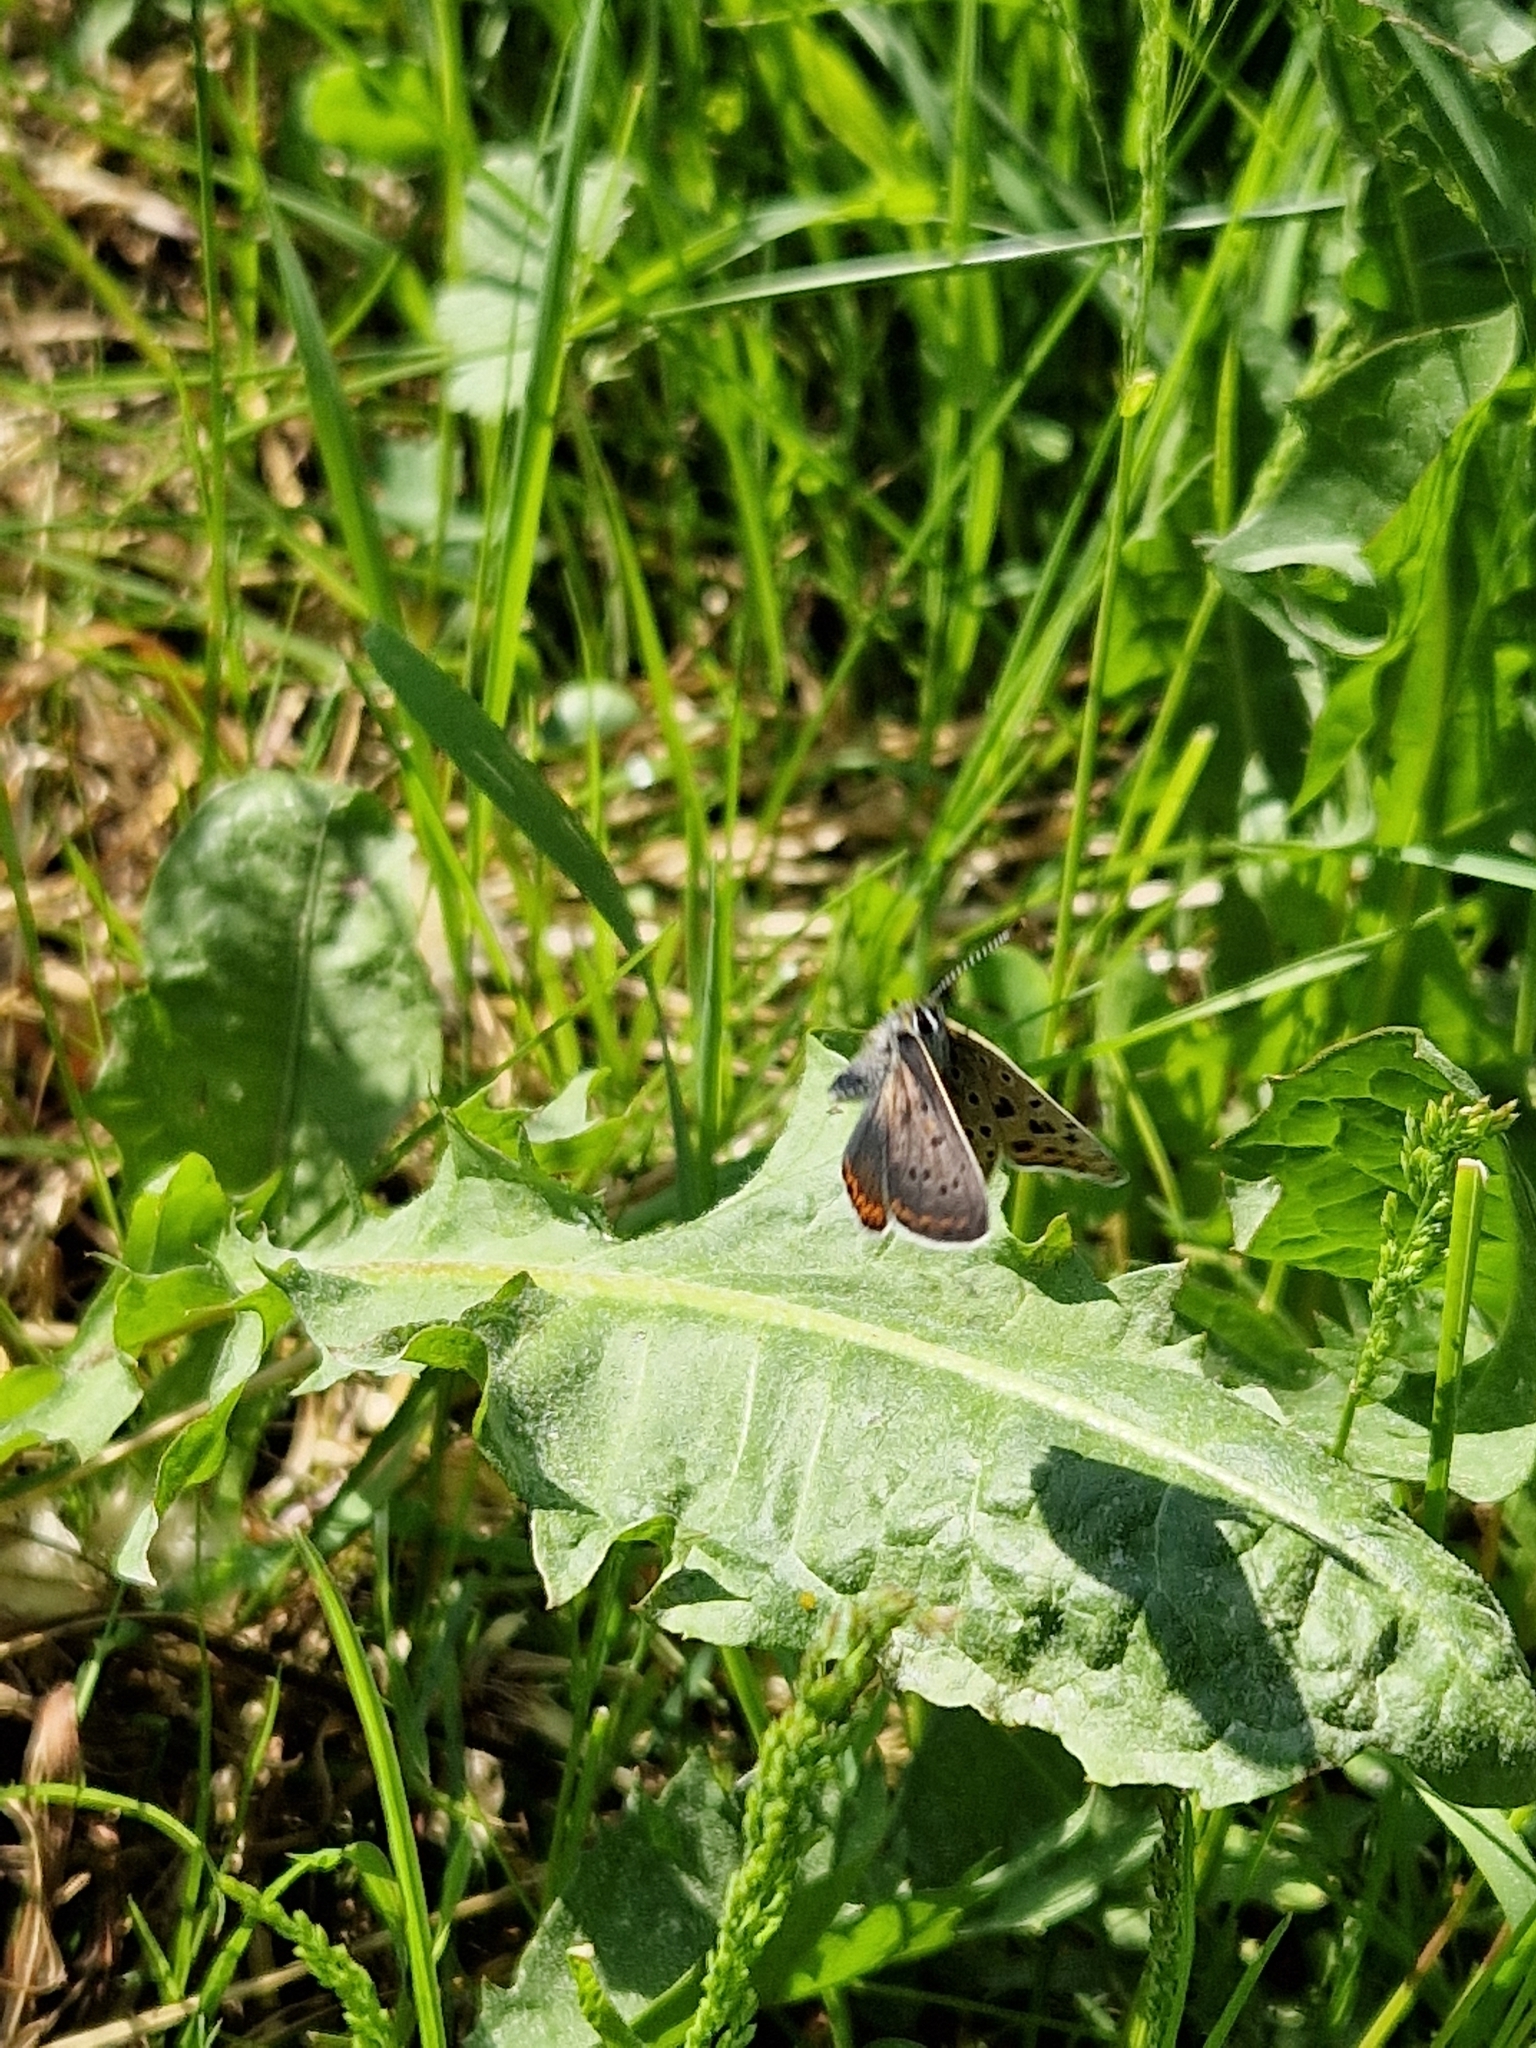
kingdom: Animalia
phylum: Arthropoda
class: Insecta
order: Lepidoptera
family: Lycaenidae
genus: Loweia
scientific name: Loweia tityrus
